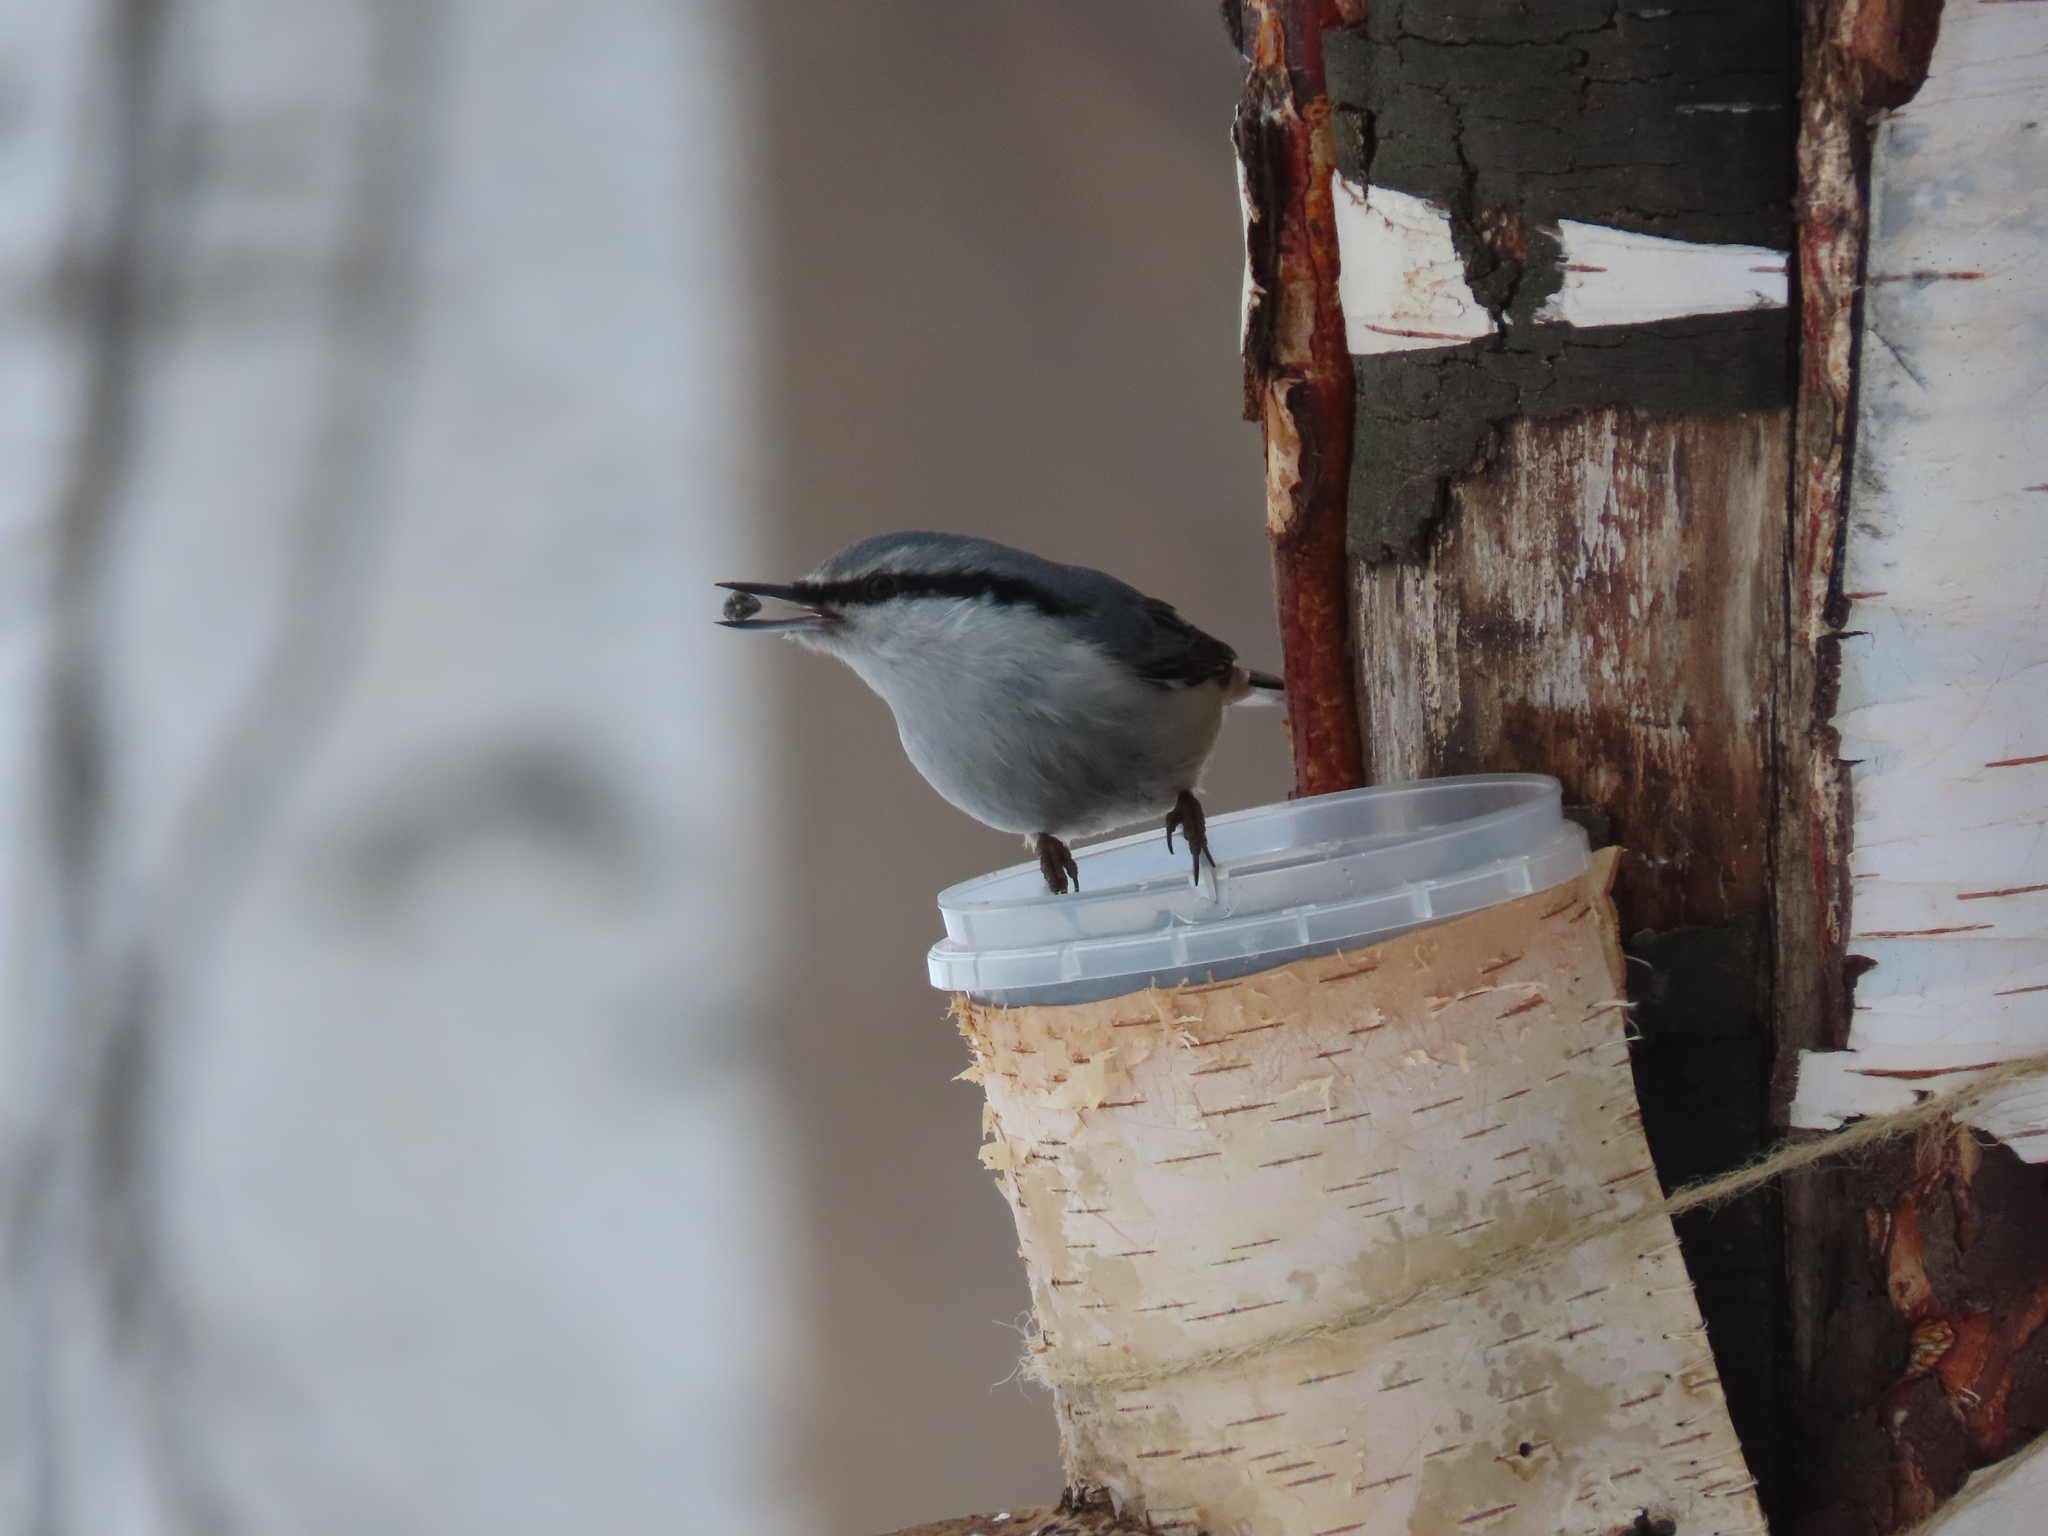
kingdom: Animalia
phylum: Chordata
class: Aves
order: Passeriformes
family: Sittidae
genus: Sitta
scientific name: Sitta europaea
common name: Eurasian nuthatch
